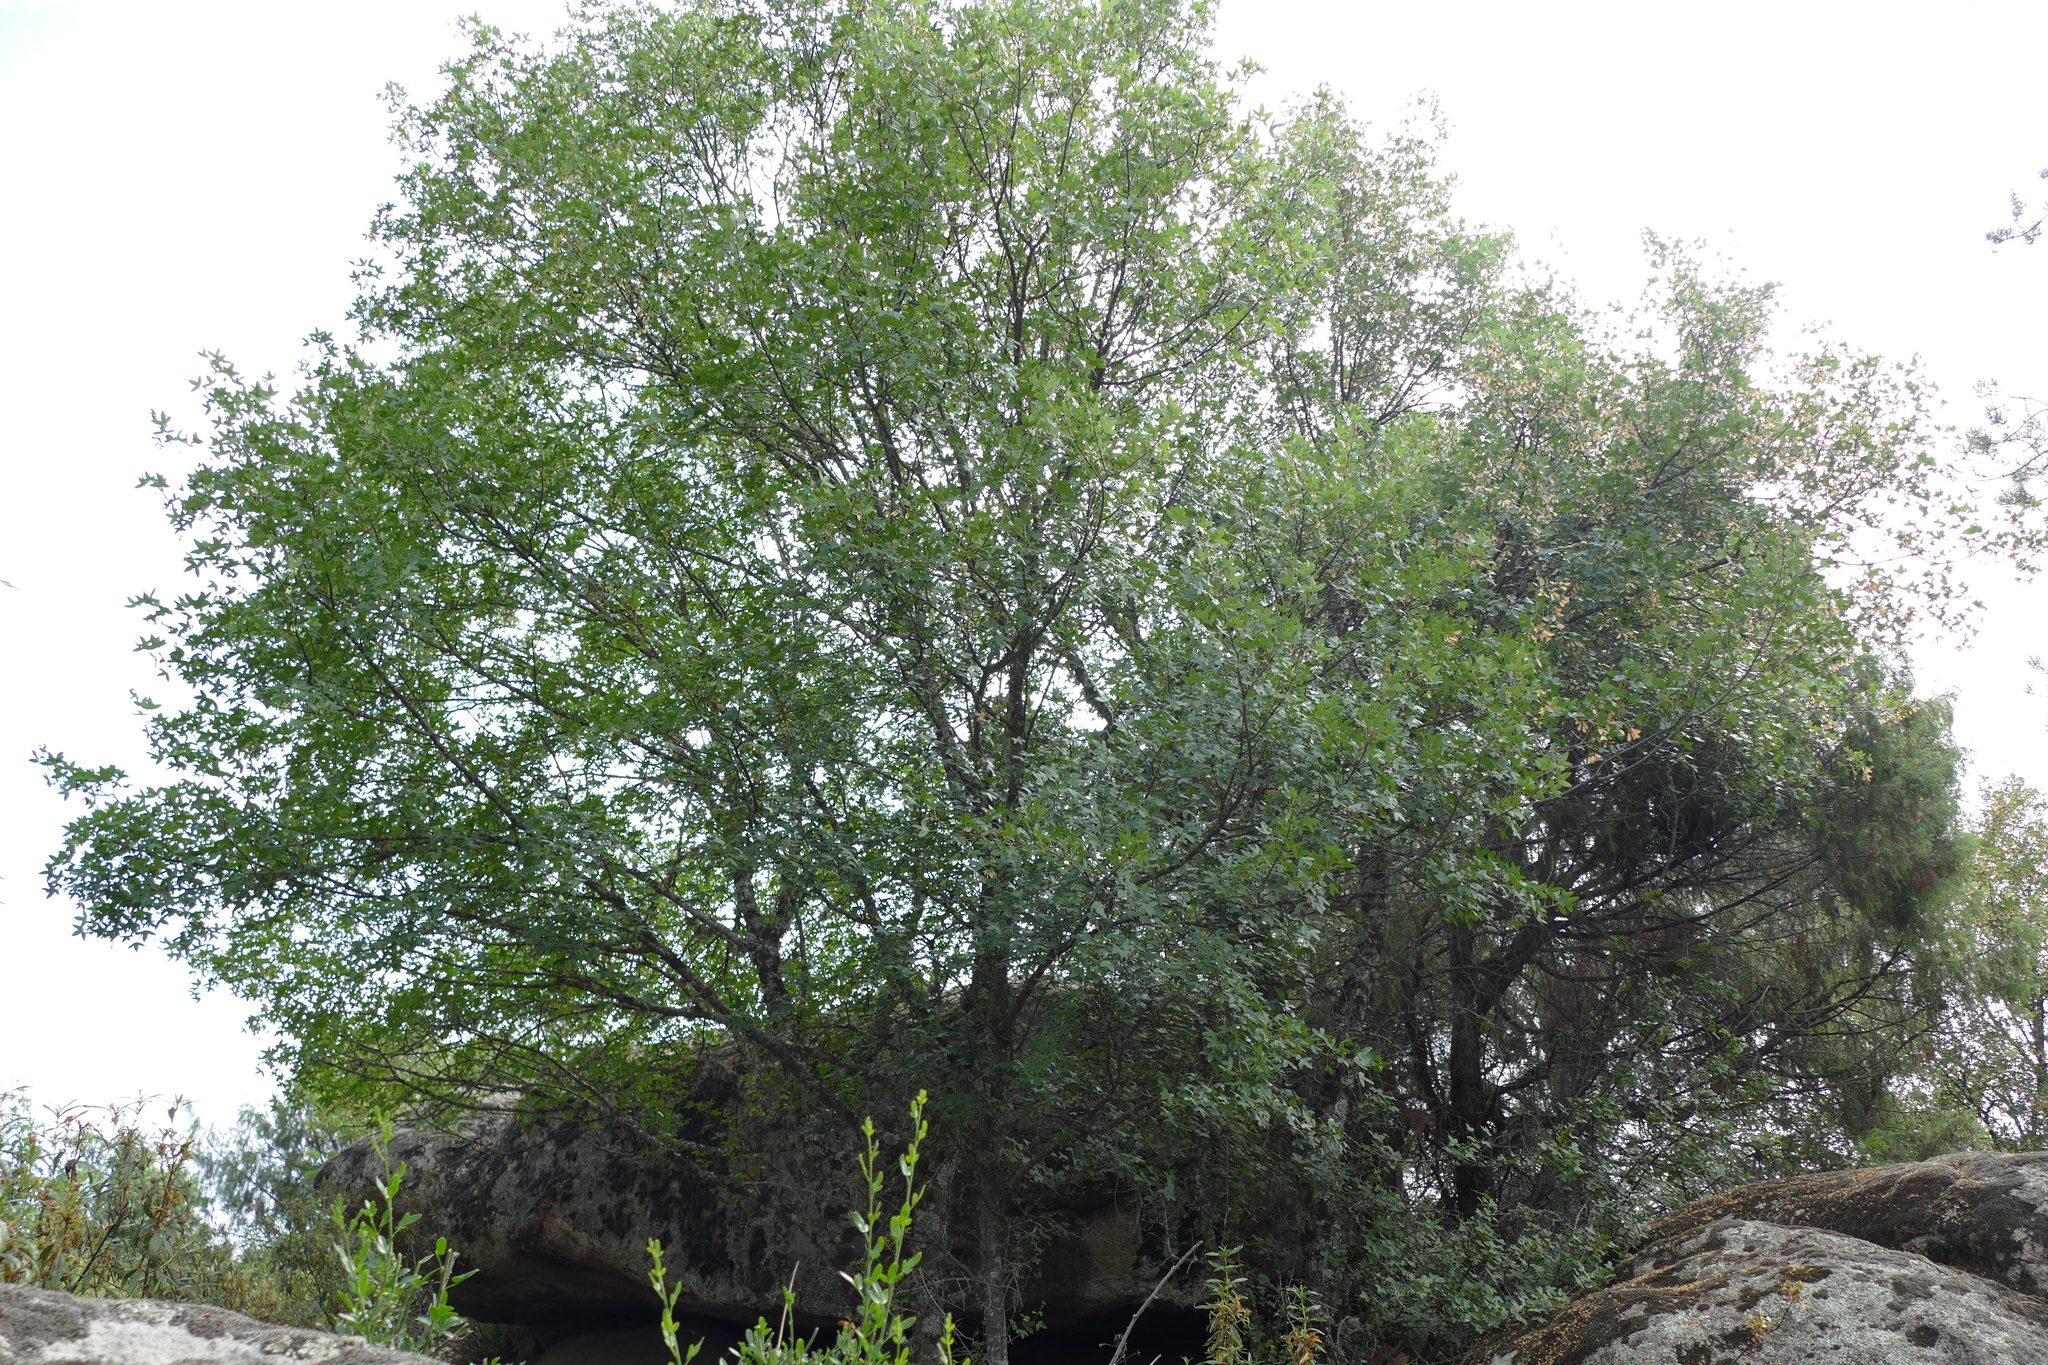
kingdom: Plantae
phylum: Tracheophyta
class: Magnoliopsida
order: Sapindales
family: Sapindaceae
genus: Acer
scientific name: Acer monspessulanum
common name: Montpellier maple
